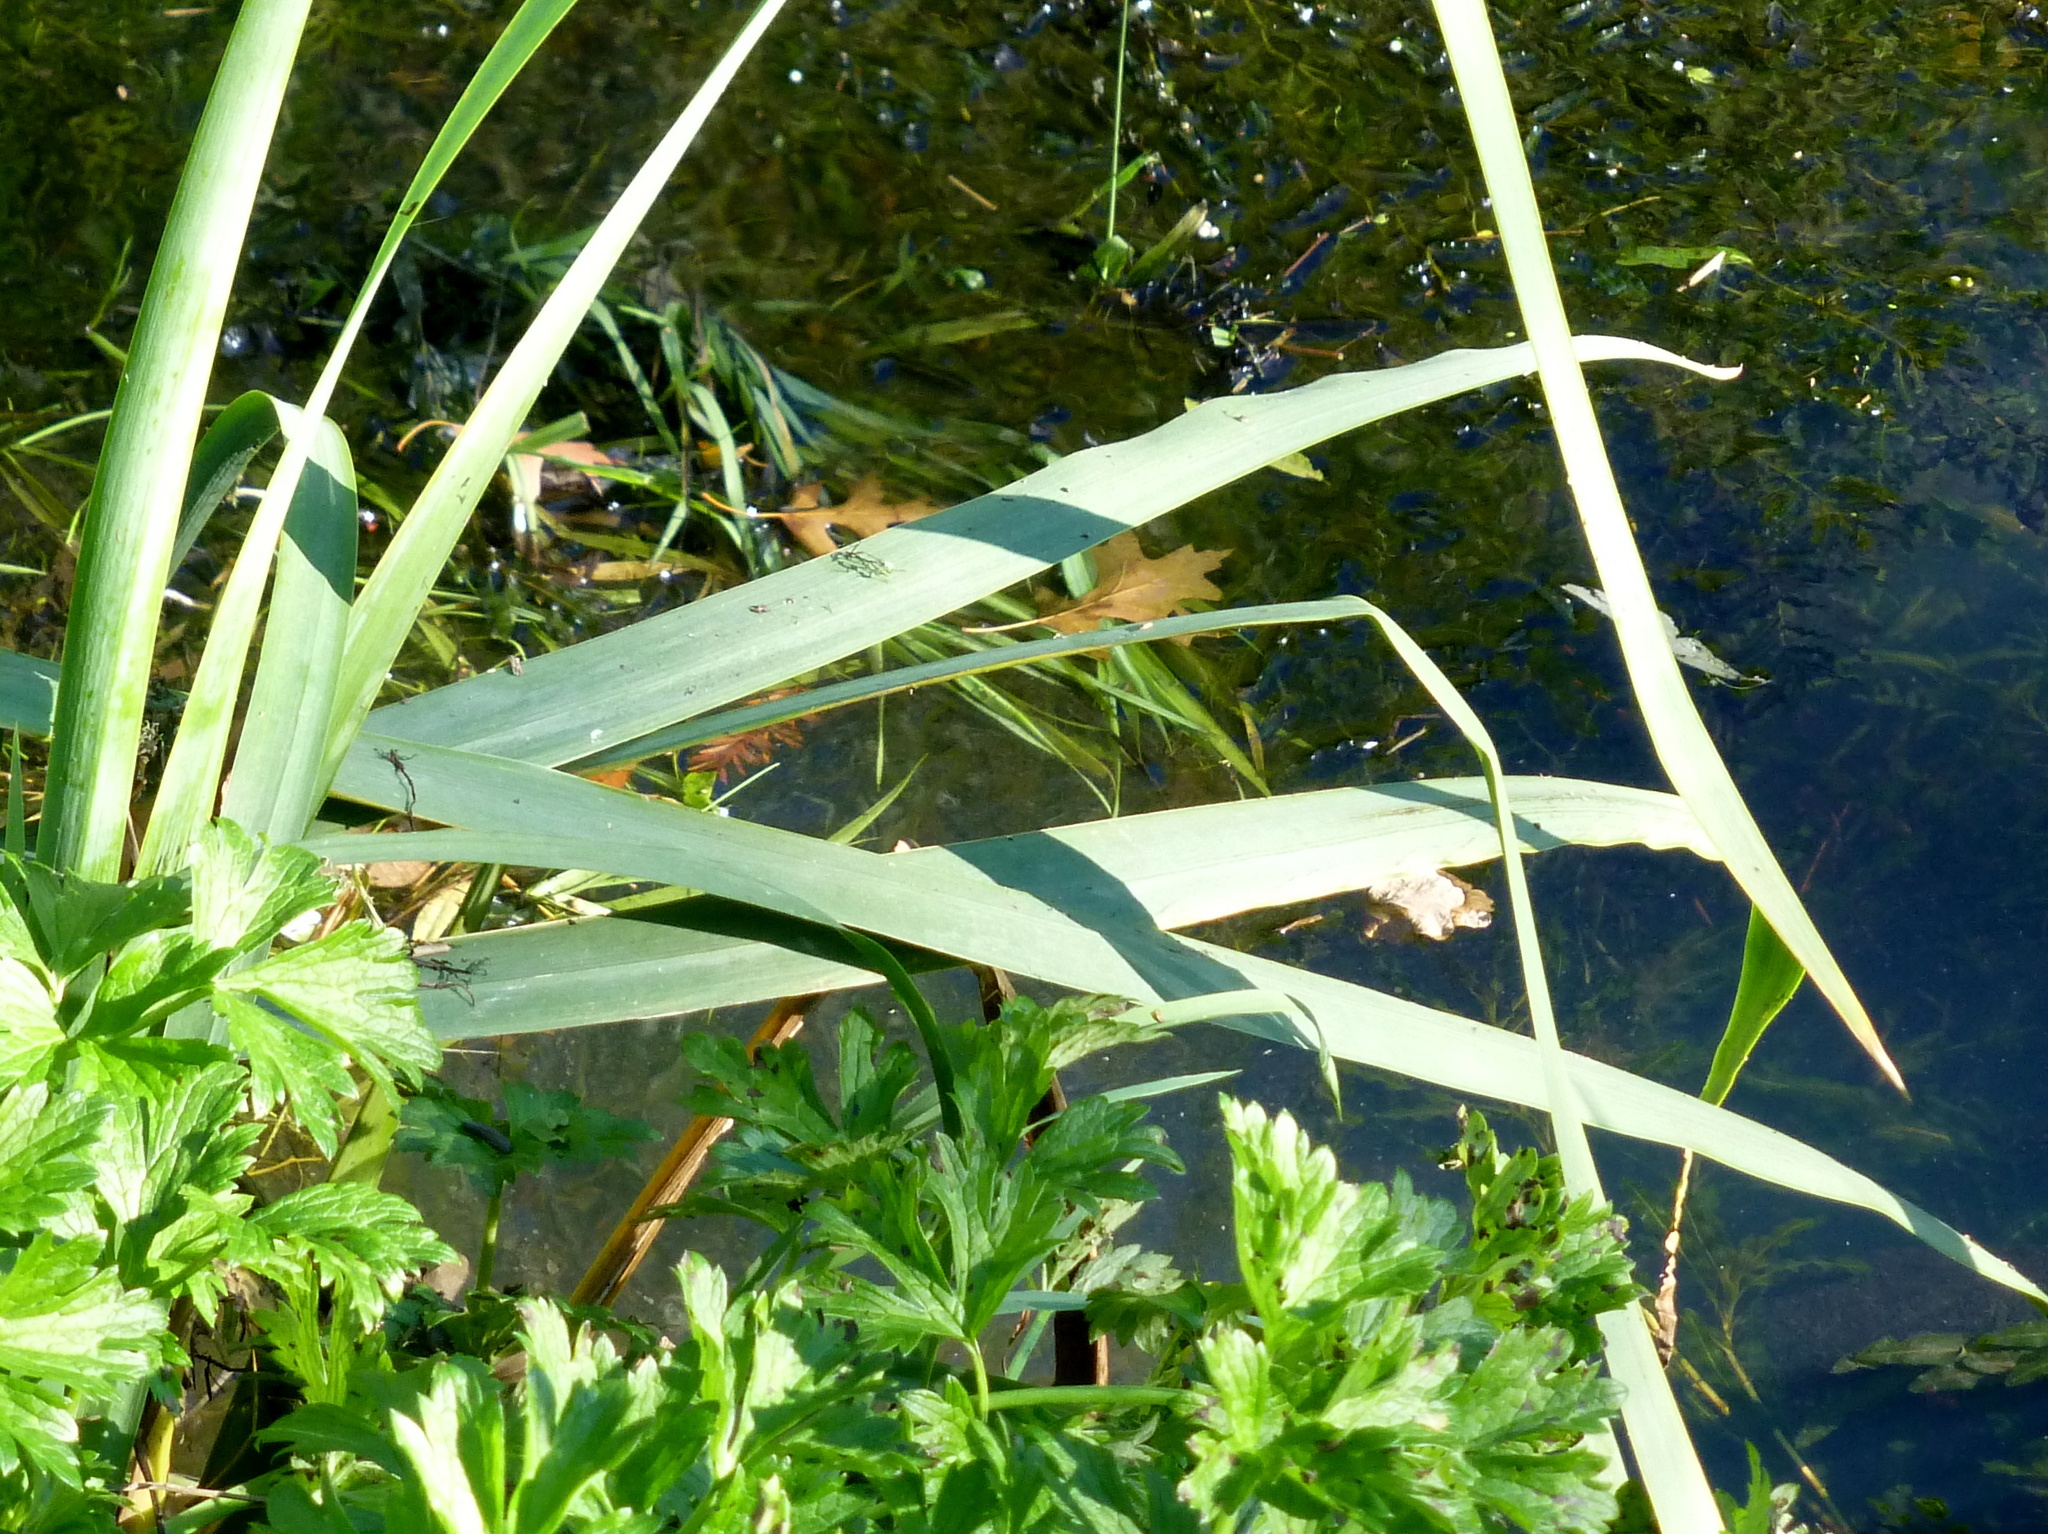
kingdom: Plantae
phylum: Tracheophyta
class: Liliopsida
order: Asparagales
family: Iridaceae
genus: Iris
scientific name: Iris pseudacorus
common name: Yellow flag
